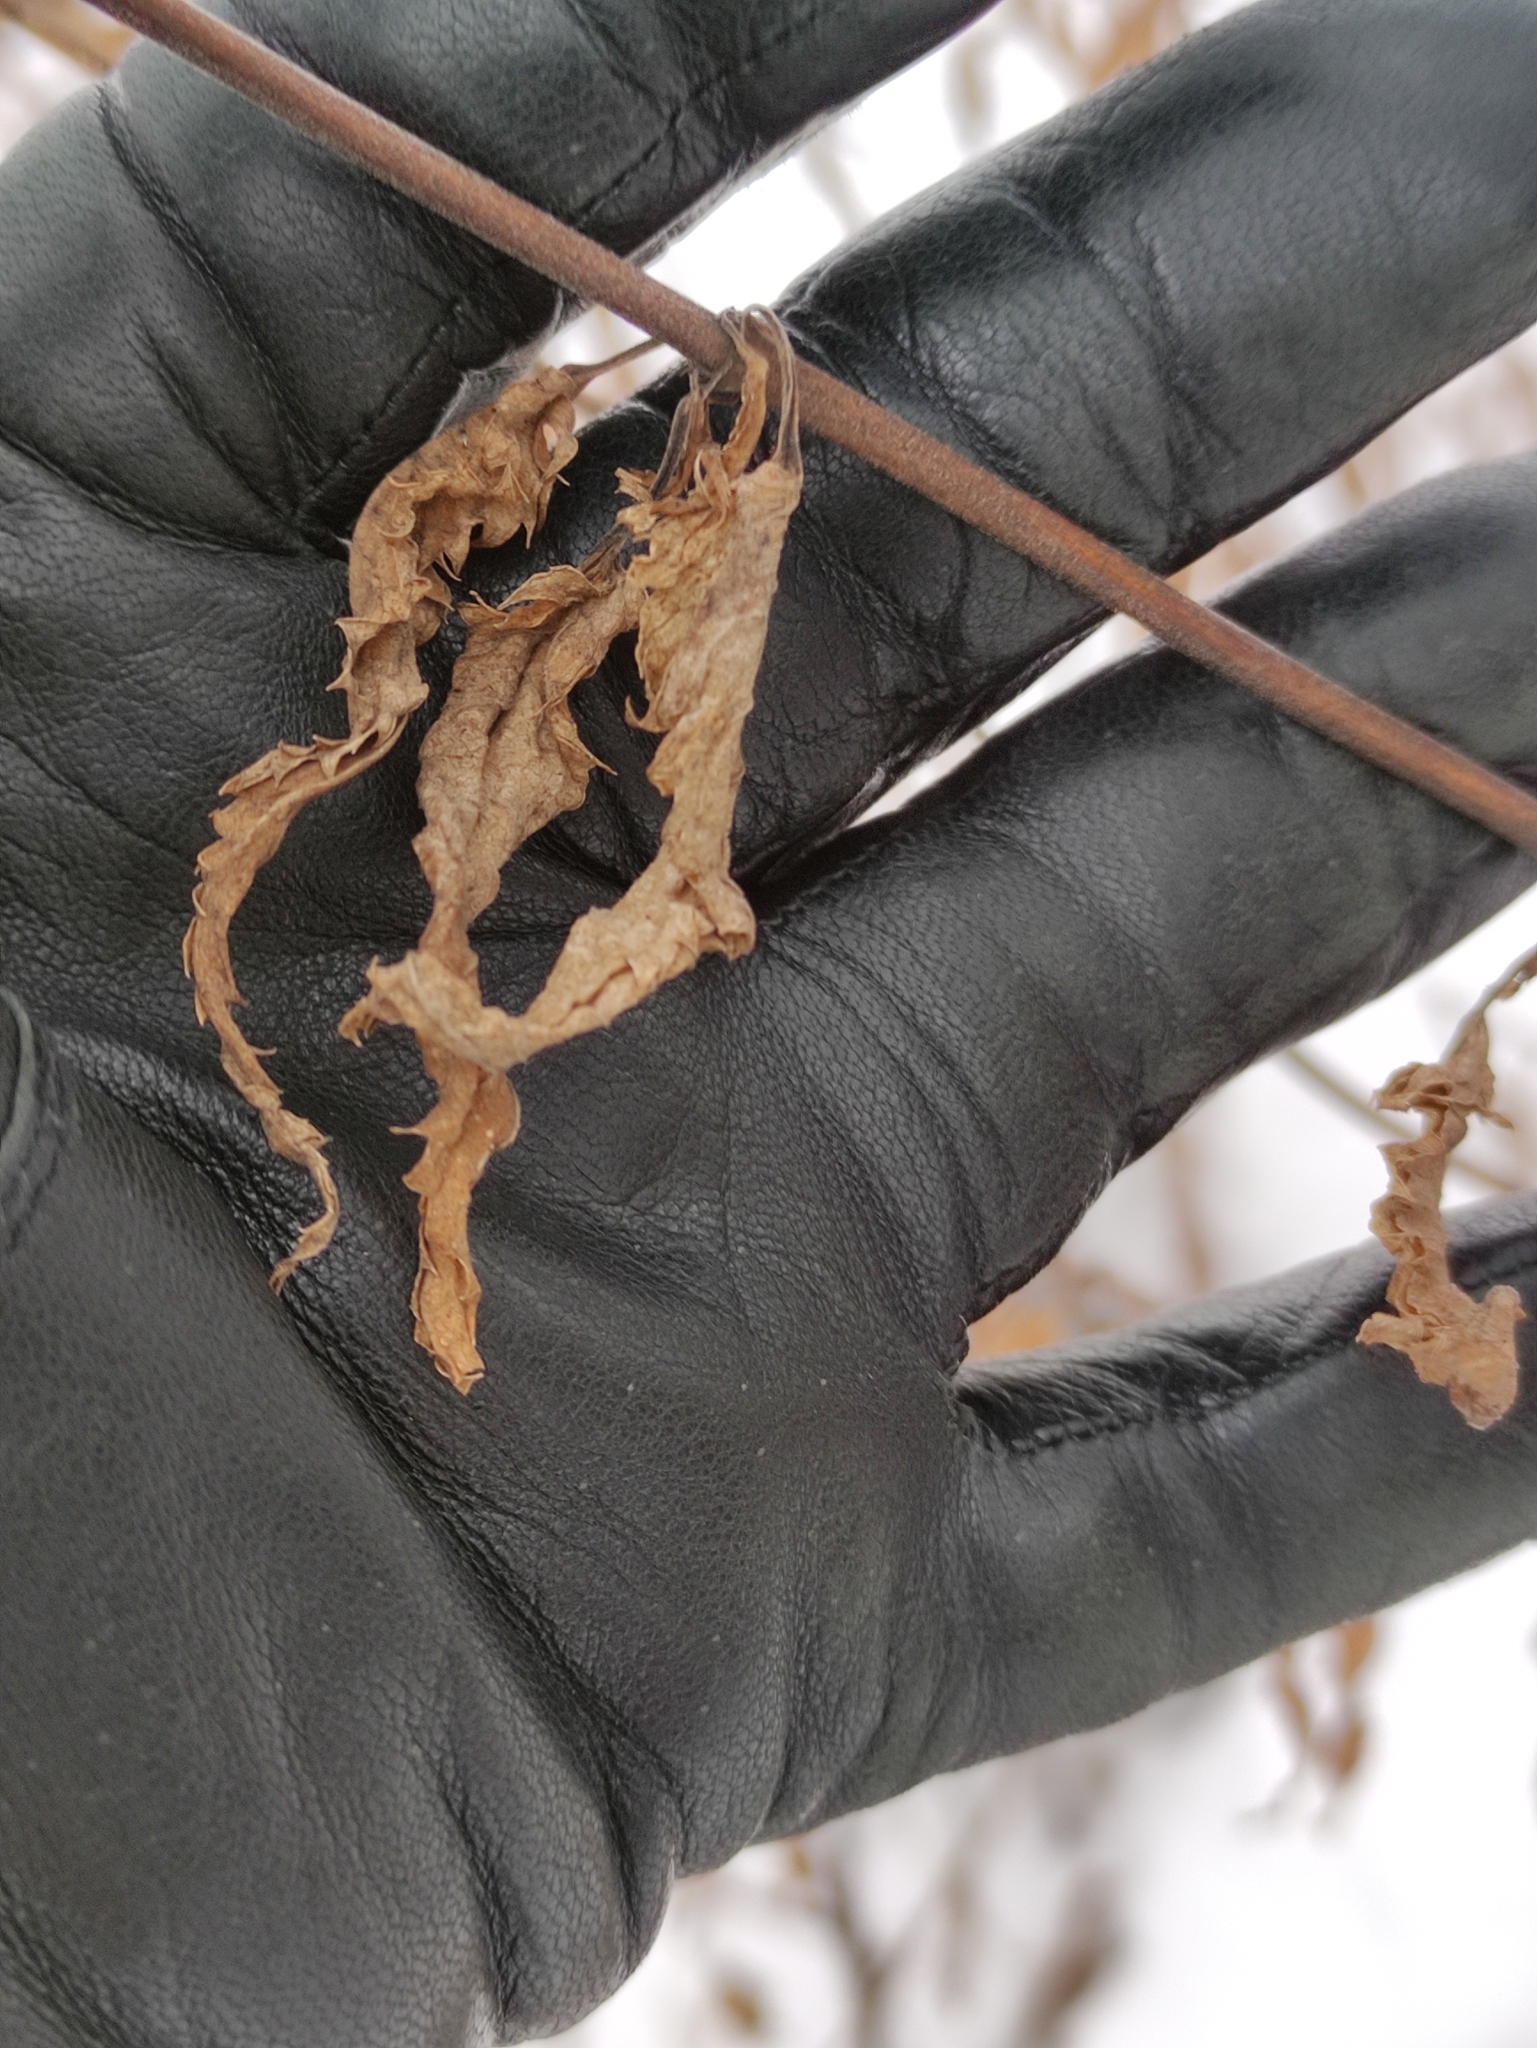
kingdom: Plantae
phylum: Tracheophyta
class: Magnoliopsida
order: Lamiales
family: Plantaginaceae
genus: Veronica
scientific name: Veronica longifolia
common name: Garden speedwell
